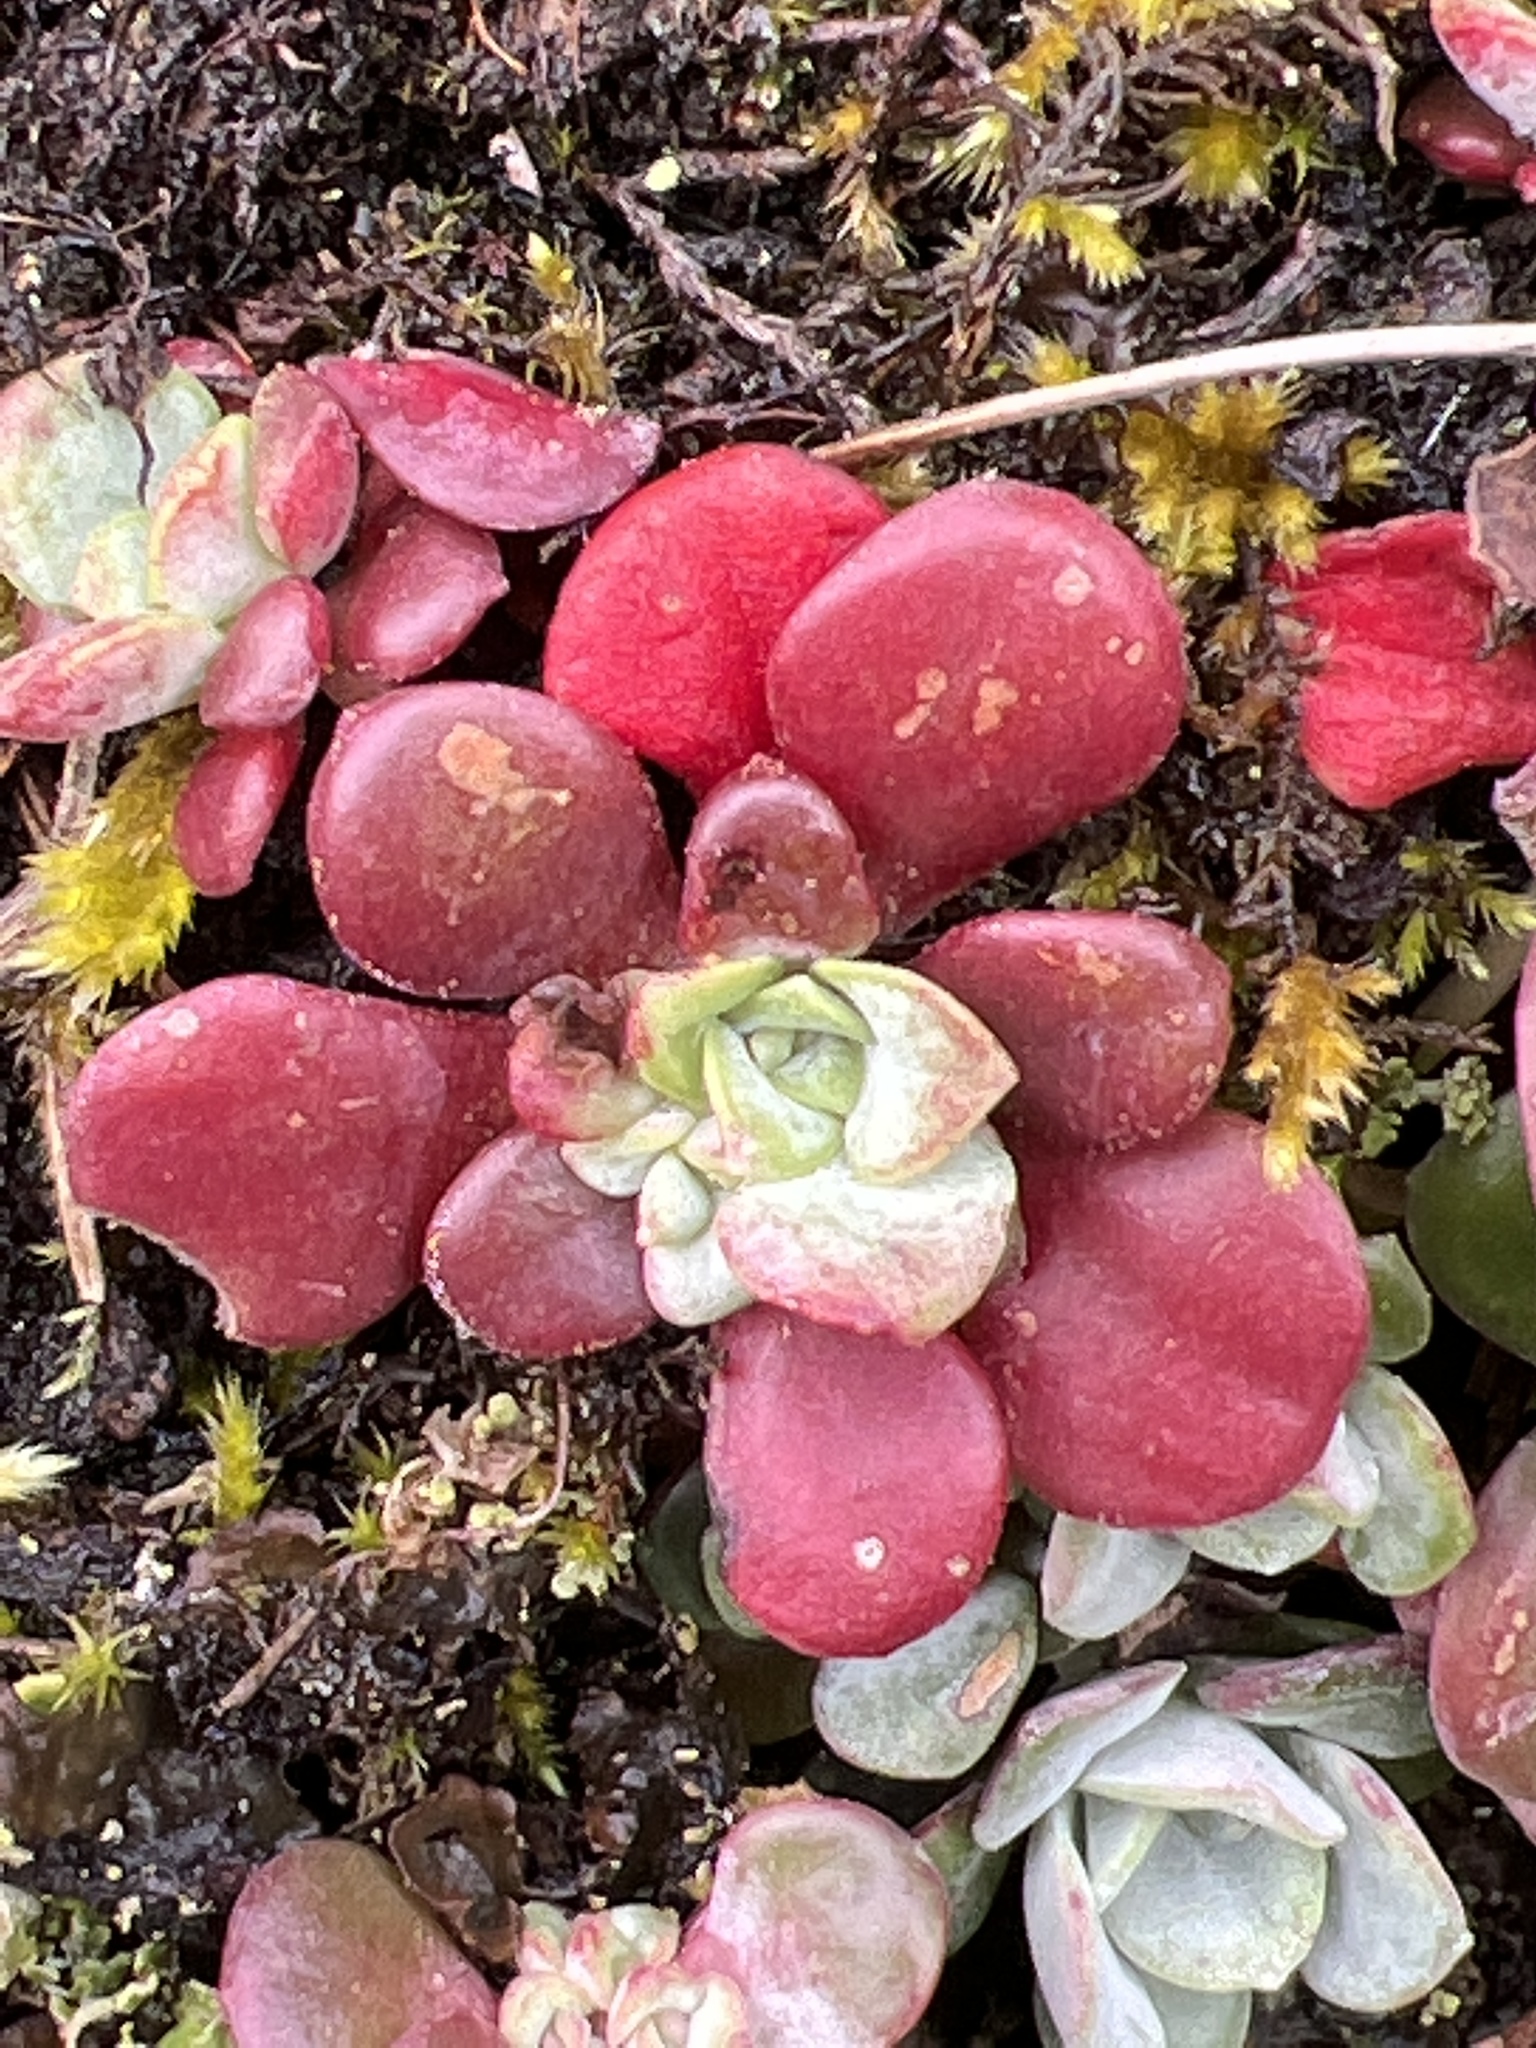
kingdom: Plantae
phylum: Tracheophyta
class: Magnoliopsida
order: Saxifragales
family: Crassulaceae
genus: Sedum
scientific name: Sedum spathulifolium
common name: Colorado stonecrop
